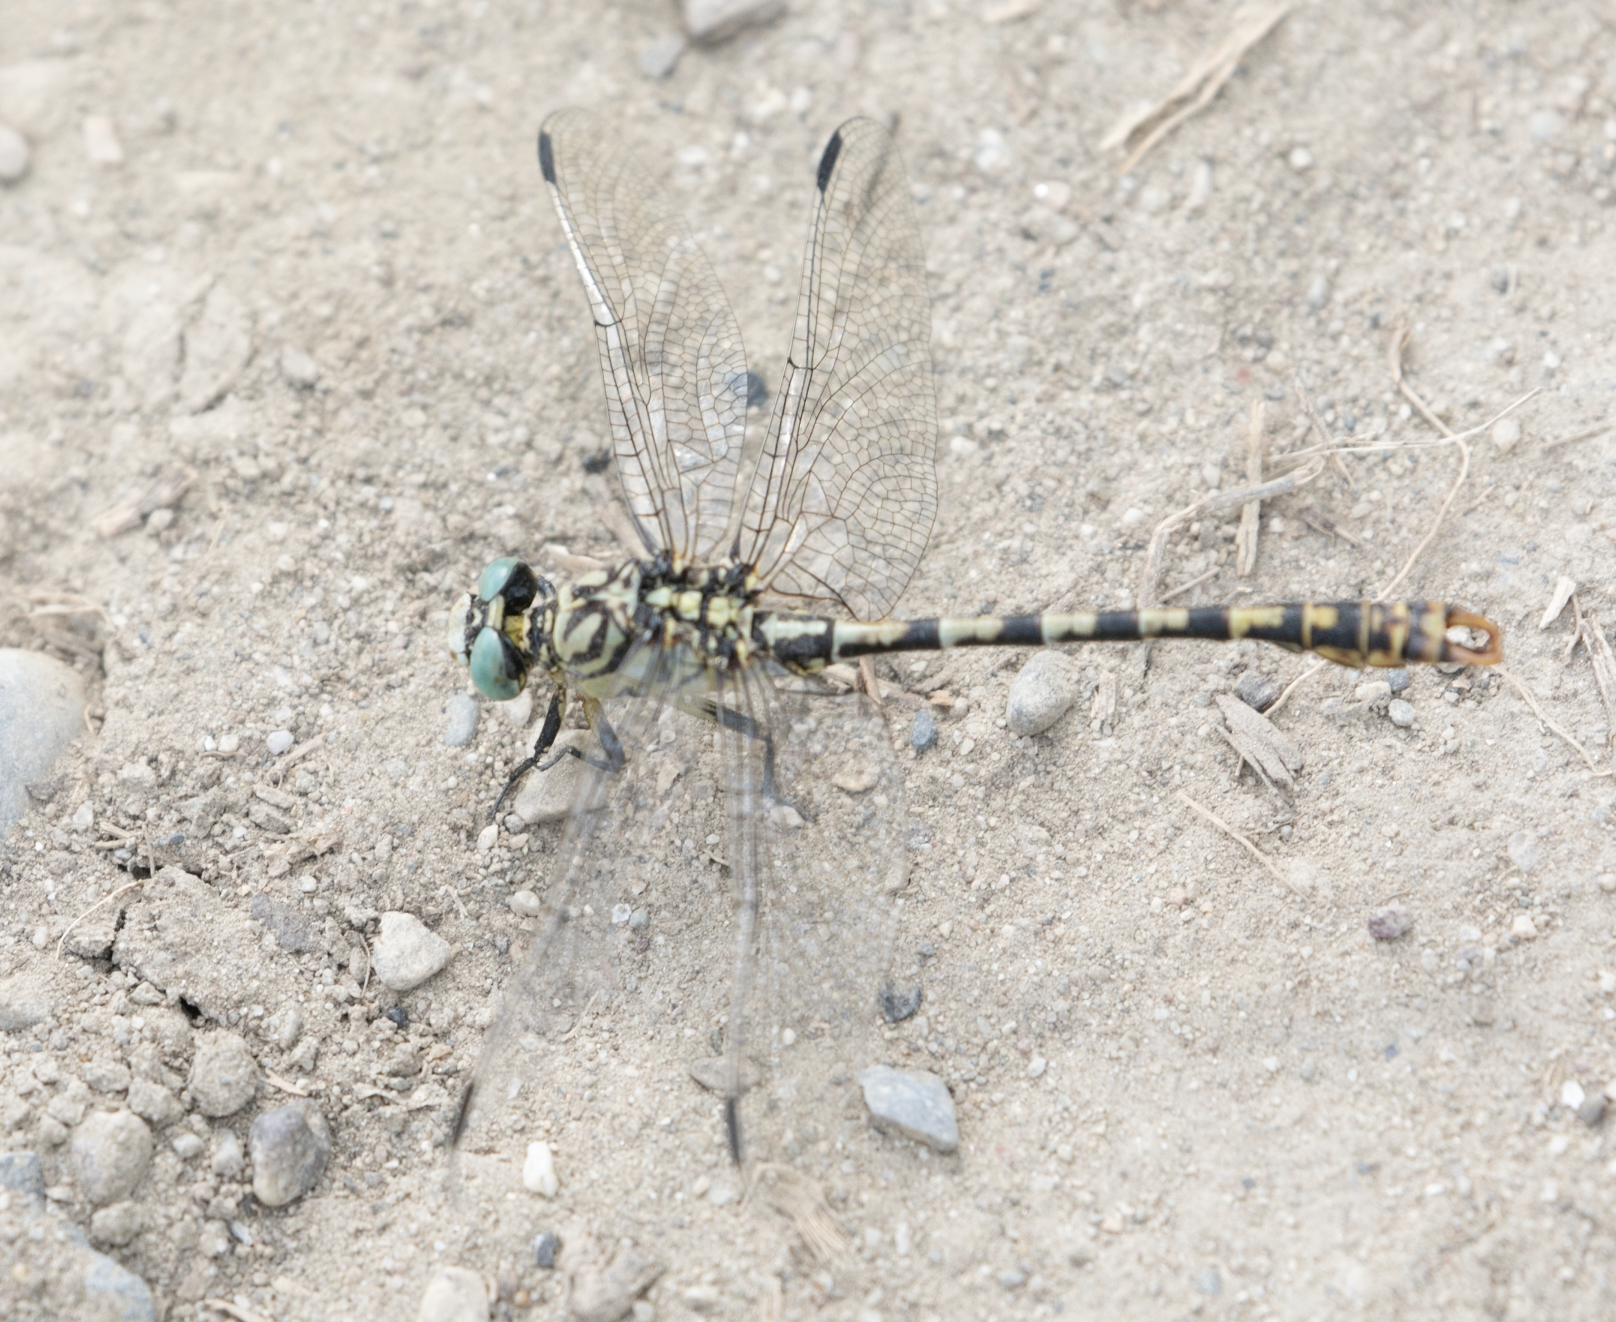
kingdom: Animalia
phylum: Arthropoda
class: Insecta
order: Odonata
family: Gomphidae
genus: Onychogomphus
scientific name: Onychogomphus forcipatus
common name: Small pincertail
